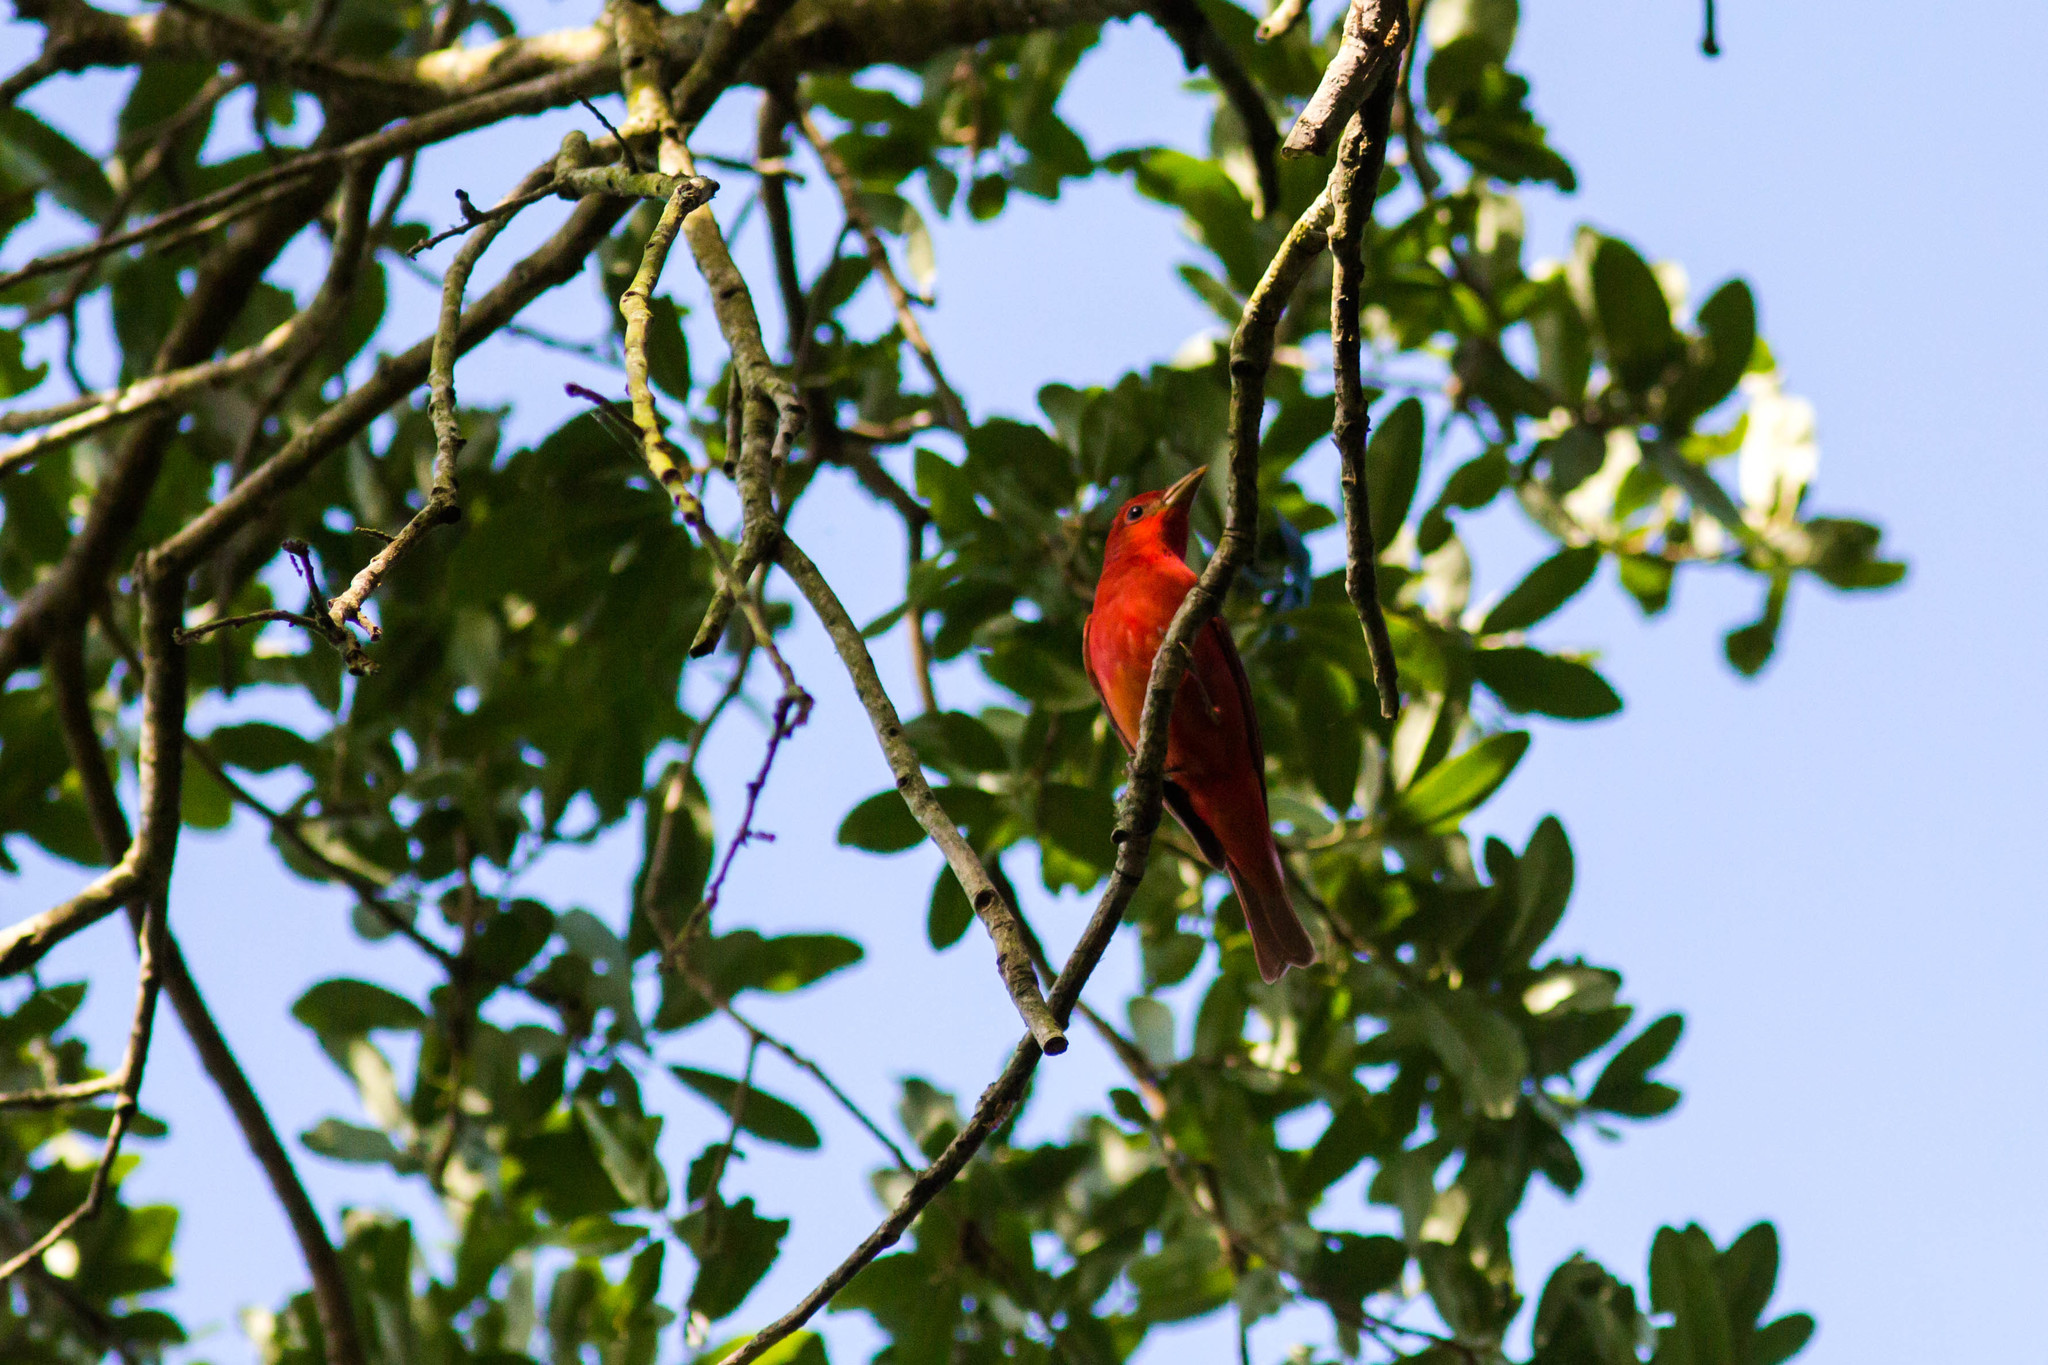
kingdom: Animalia
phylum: Chordata
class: Aves
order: Passeriformes
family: Cardinalidae
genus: Piranga
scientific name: Piranga rubra
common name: Summer tanager
